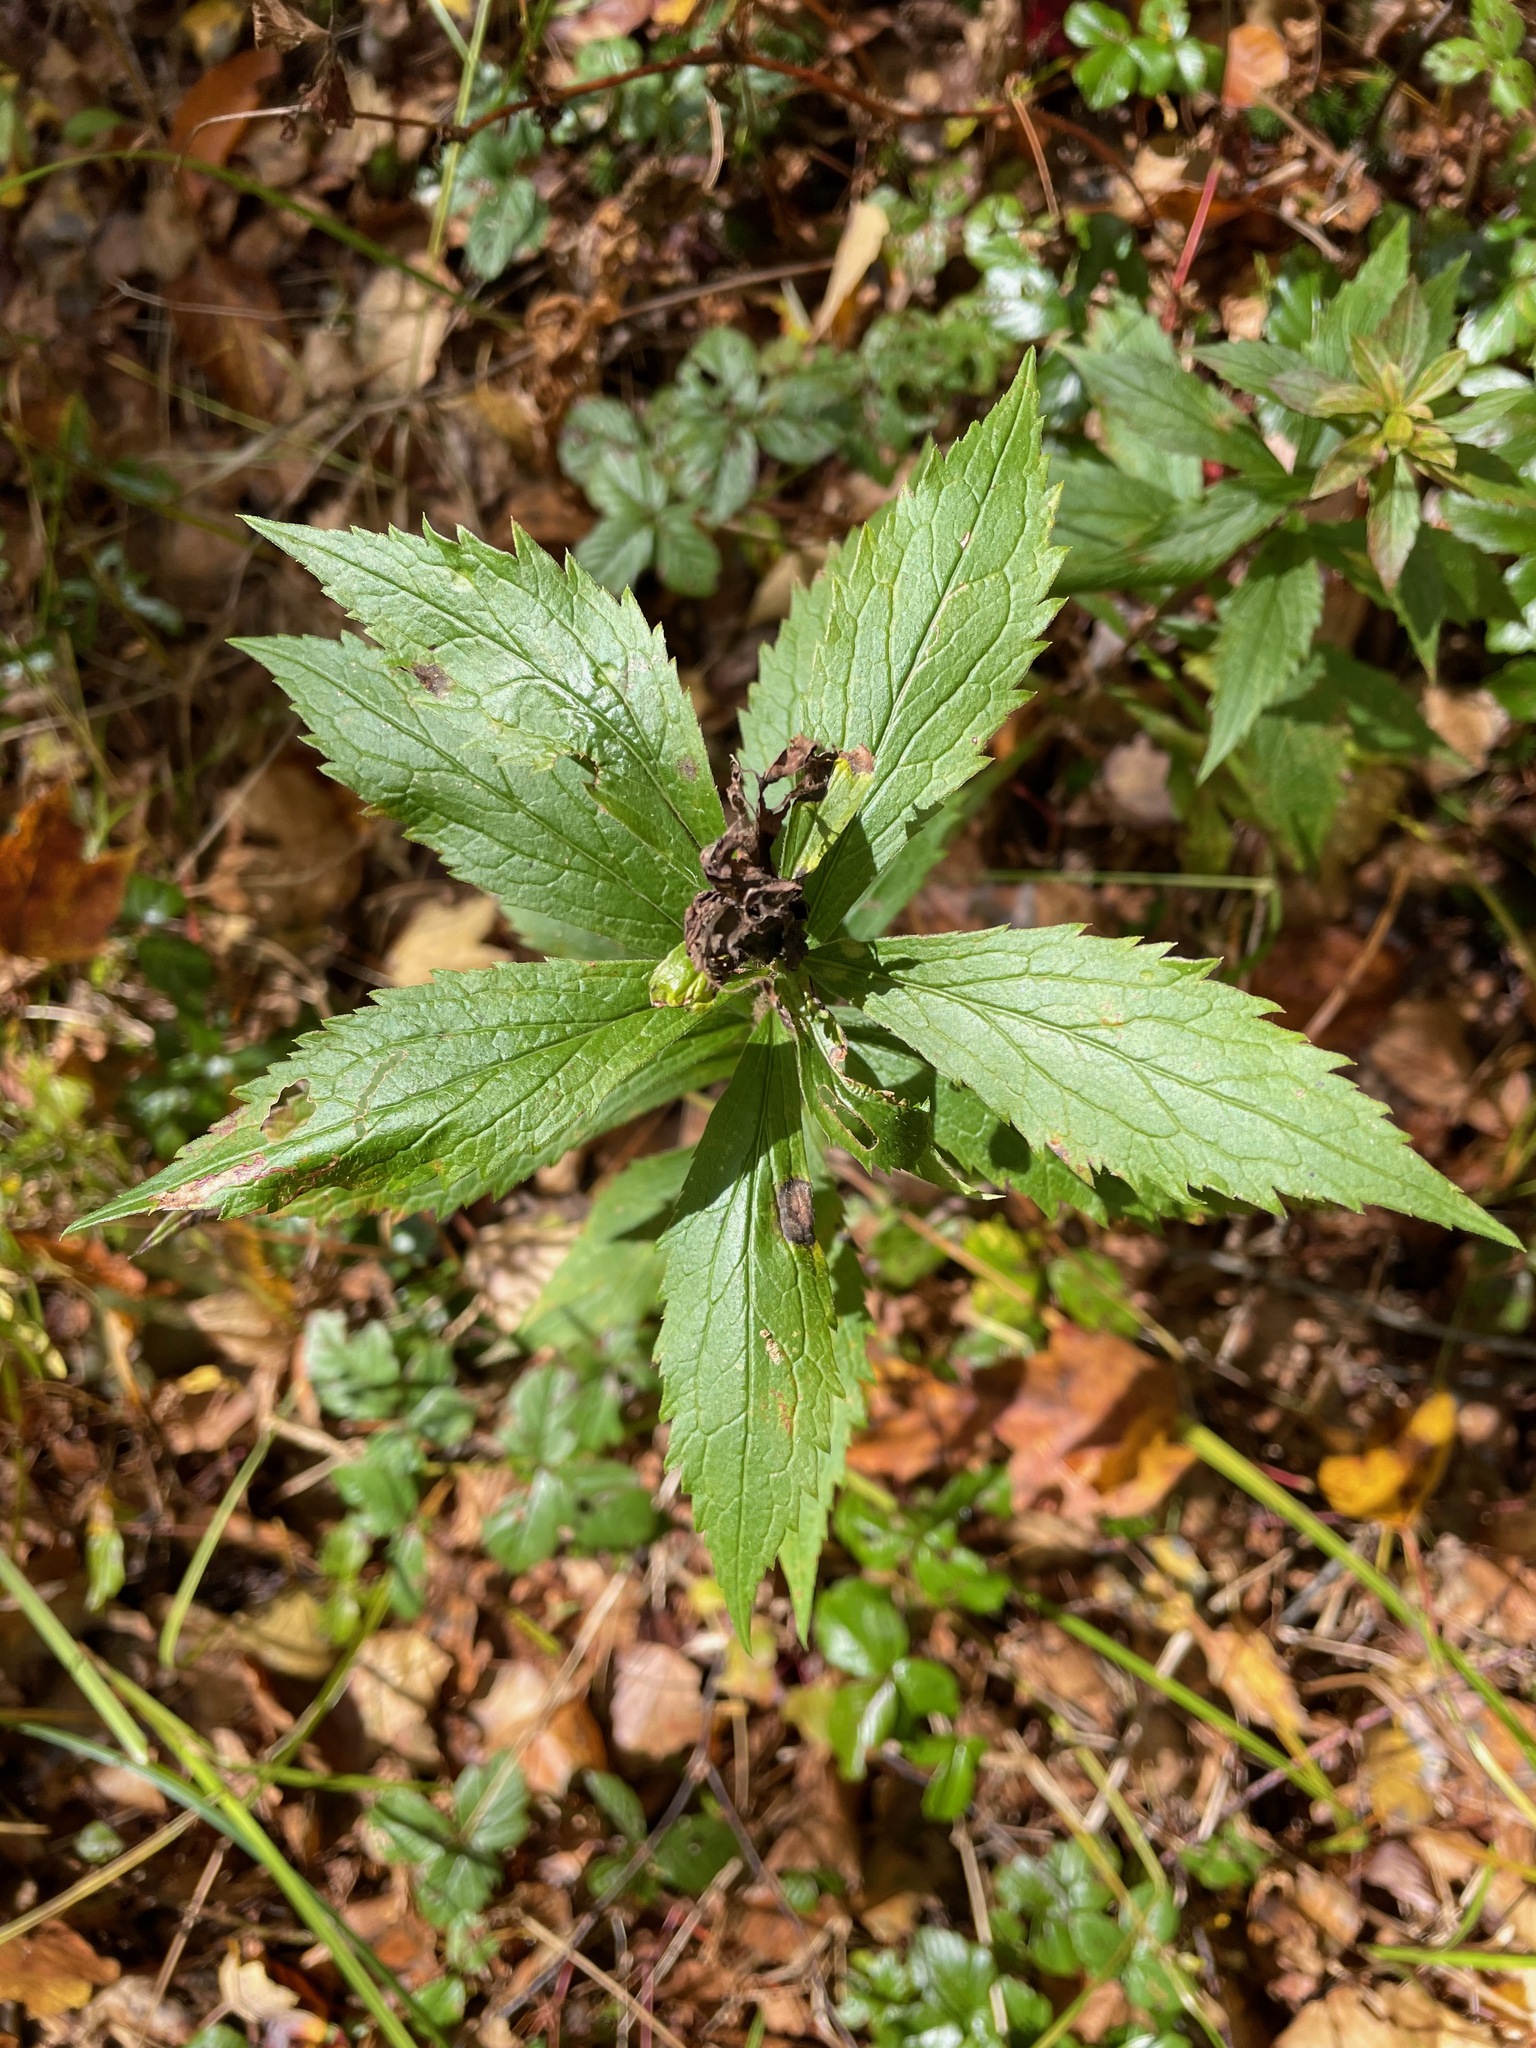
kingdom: Plantae
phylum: Tracheophyta
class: Magnoliopsida
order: Asterales
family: Asteraceae
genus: Solidago
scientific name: Solidago rugosa
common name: Rough-stemmed goldenrod
